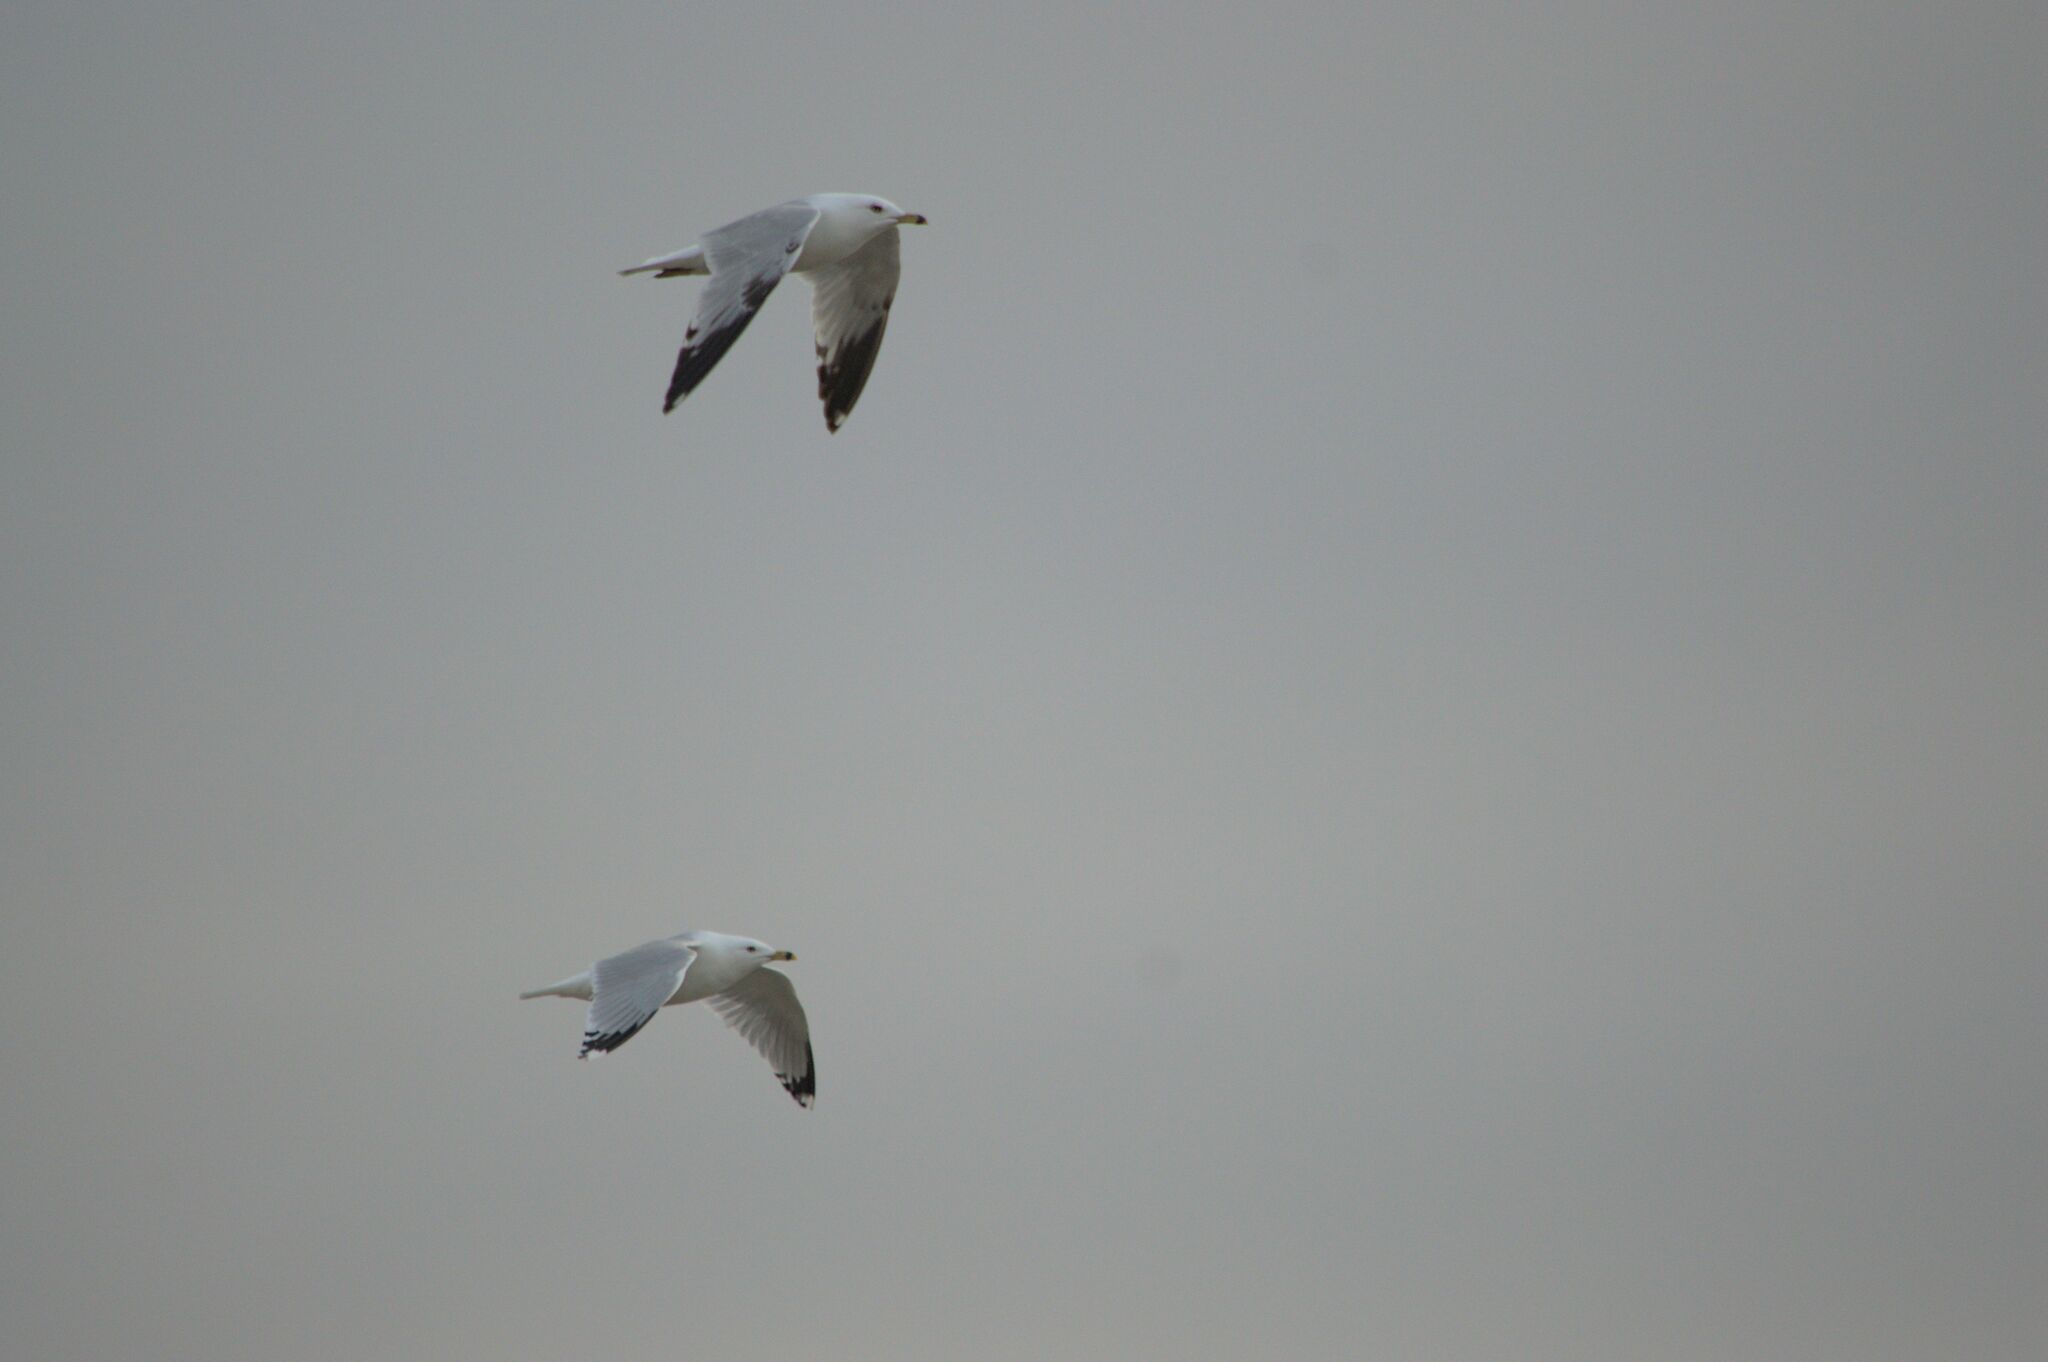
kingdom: Animalia
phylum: Chordata
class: Aves
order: Charadriiformes
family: Laridae
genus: Larus
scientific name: Larus delawarensis
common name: Ring-billed gull
